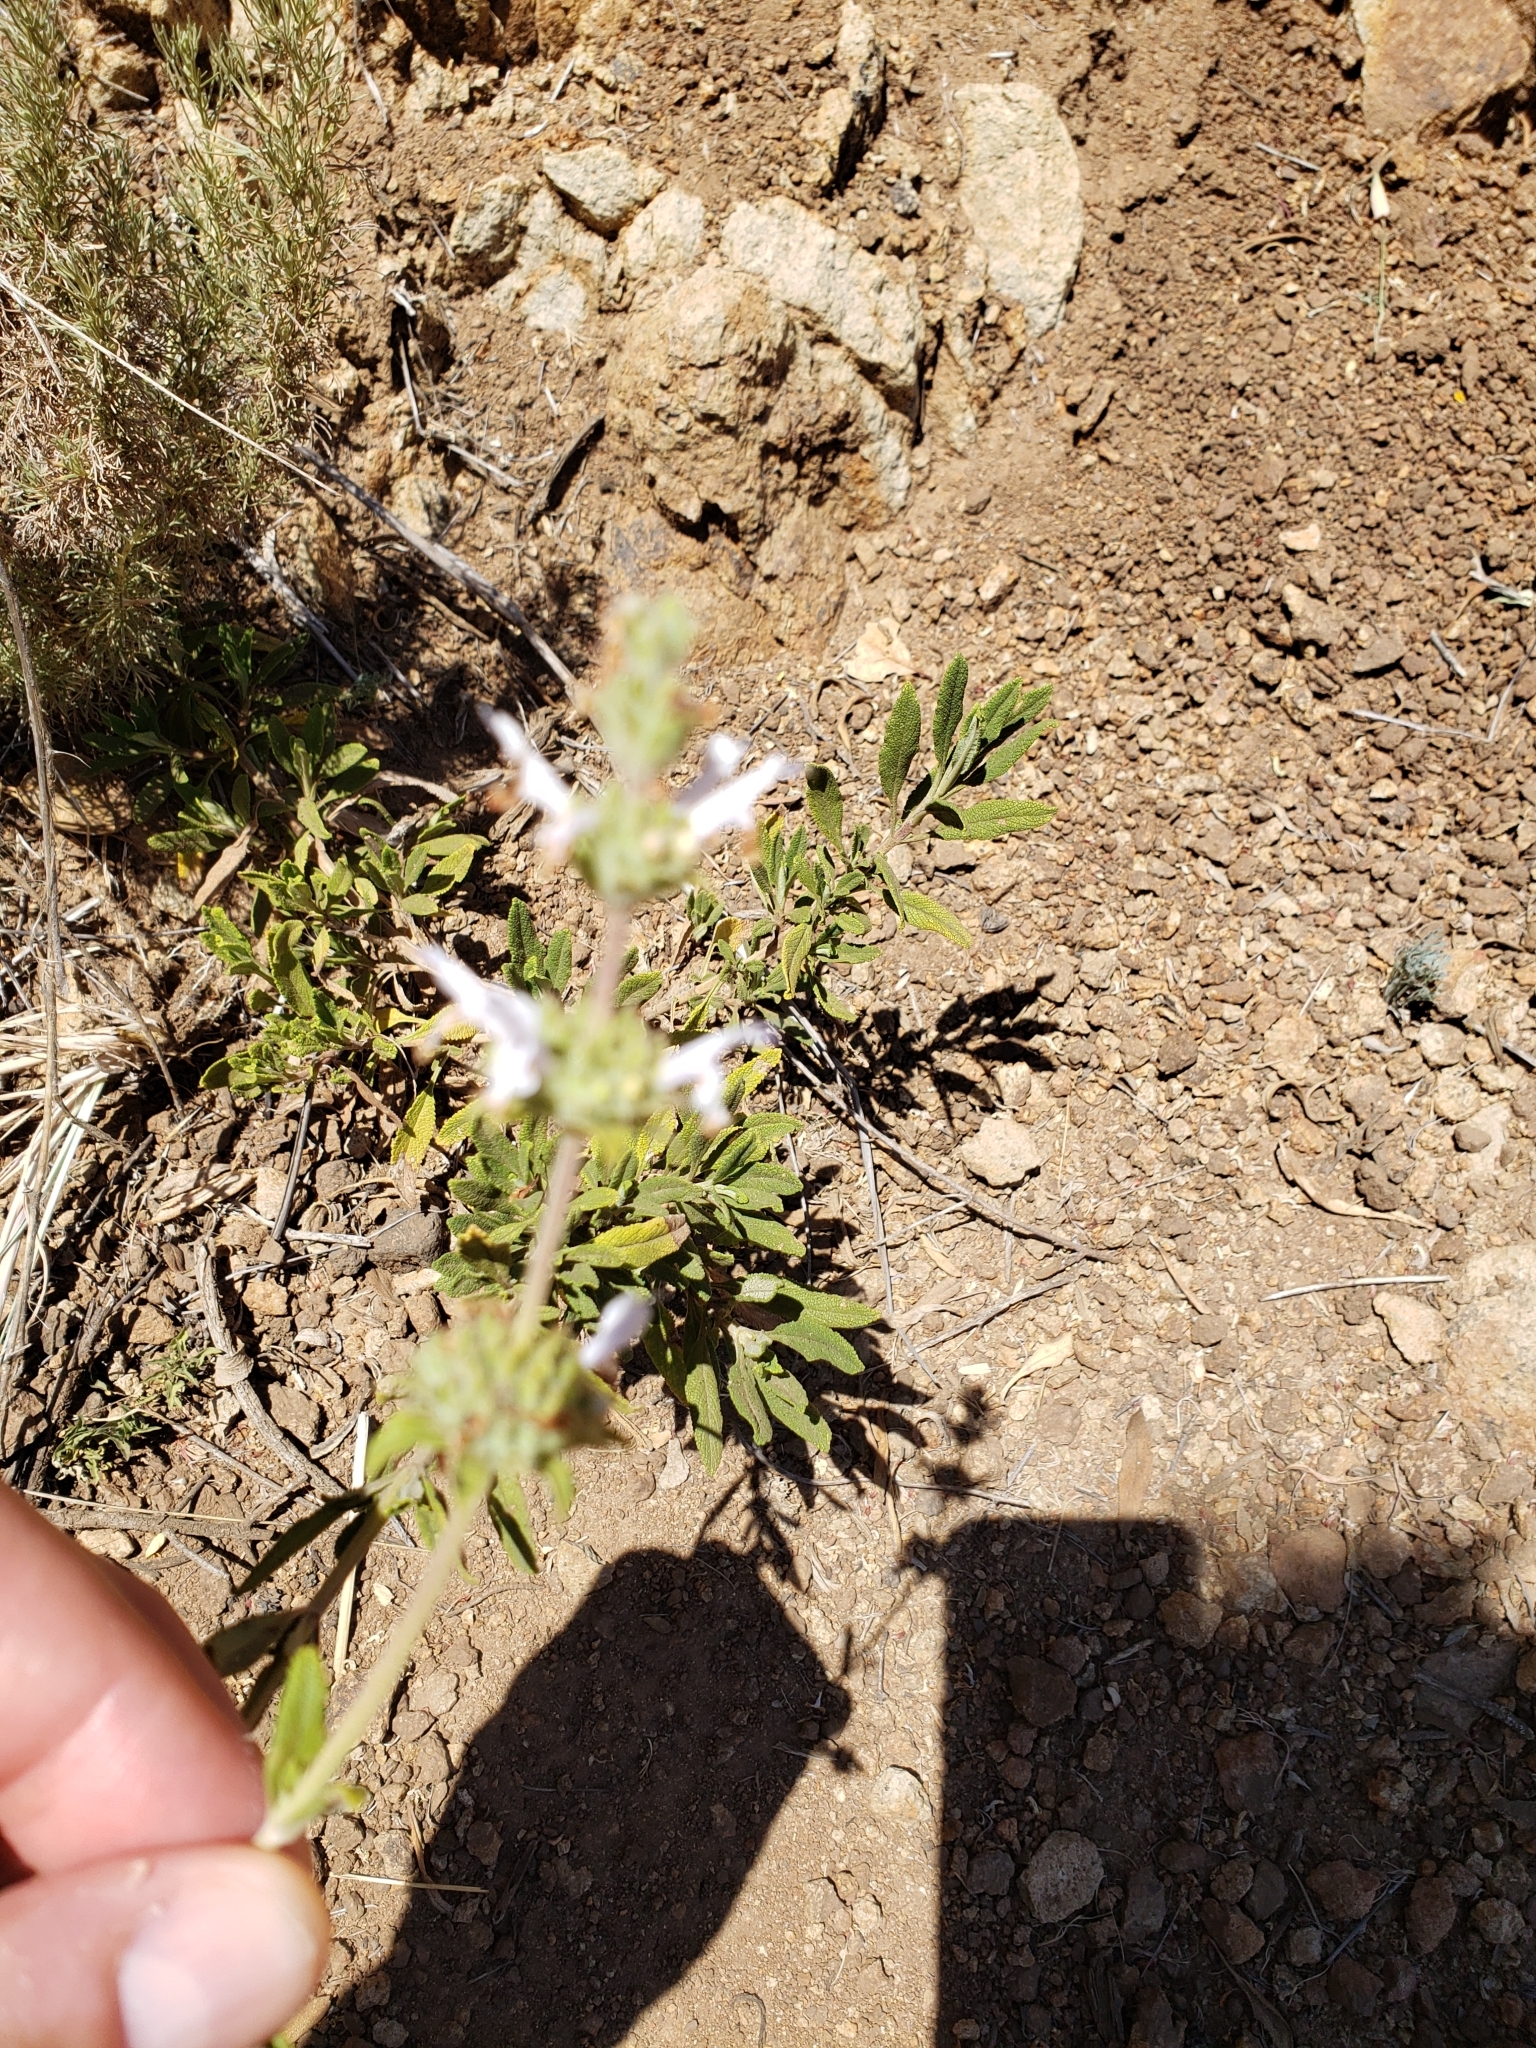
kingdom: Plantae
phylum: Tracheophyta
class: Magnoliopsida
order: Lamiales
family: Lamiaceae
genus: Salvia
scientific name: Salvia sonomensis
